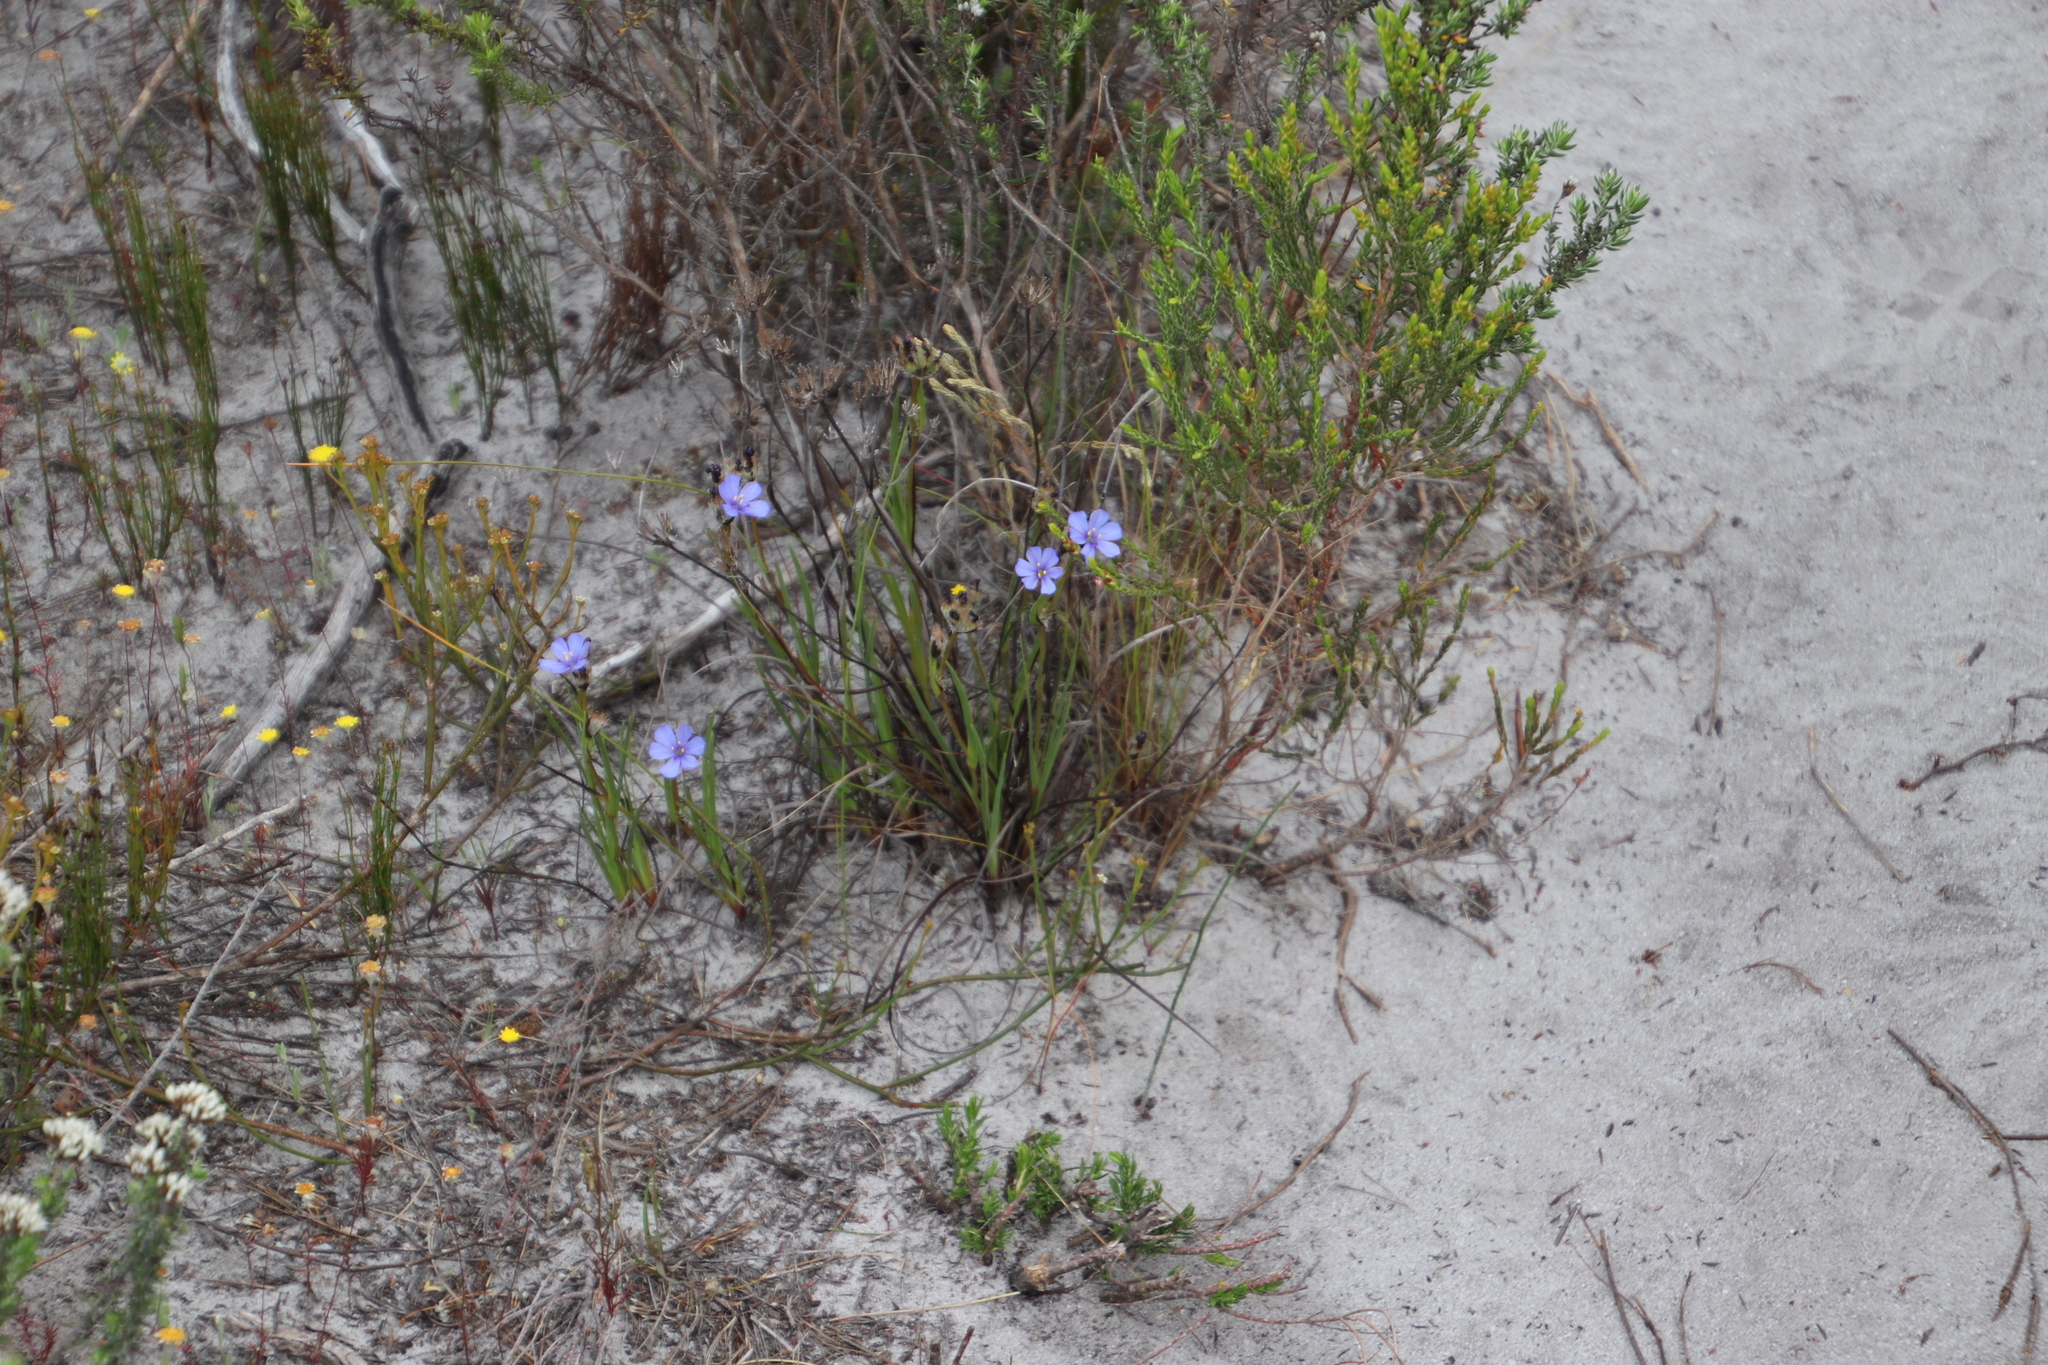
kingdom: Plantae
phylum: Tracheophyta
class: Liliopsida
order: Asparagales
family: Iridaceae
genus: Aristea
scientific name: Aristea africana
